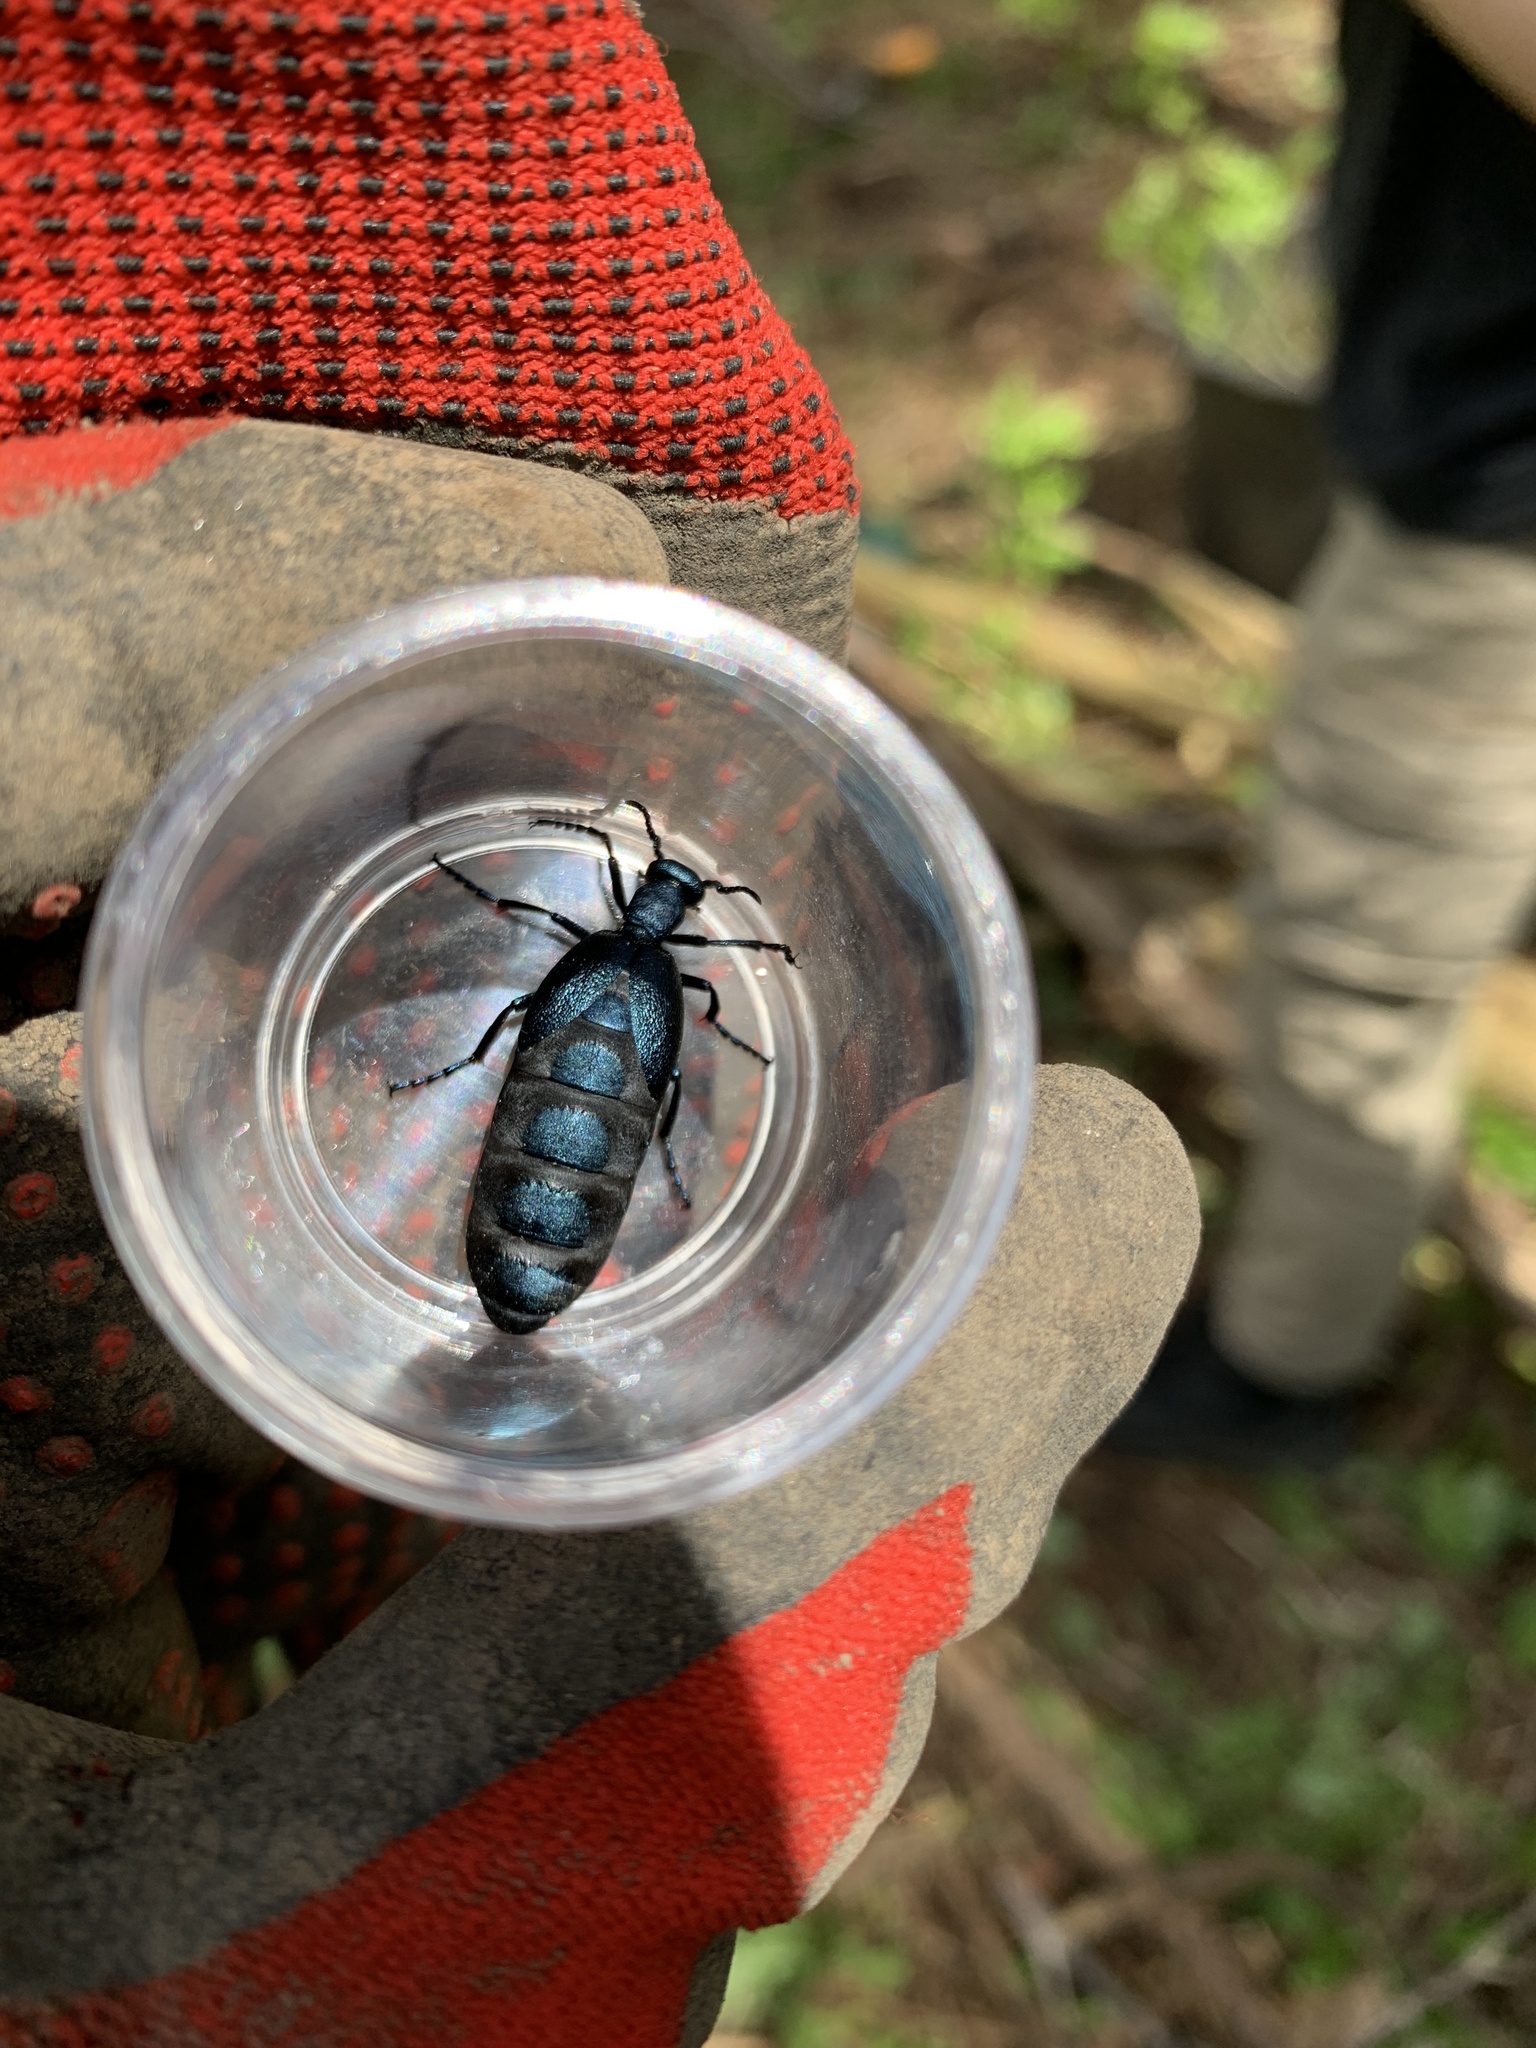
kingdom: Animalia
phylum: Arthropoda
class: Insecta
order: Coleoptera
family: Meloidae
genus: Meloe
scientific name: Meloe angusticollis
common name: Short-winged blister beetle
